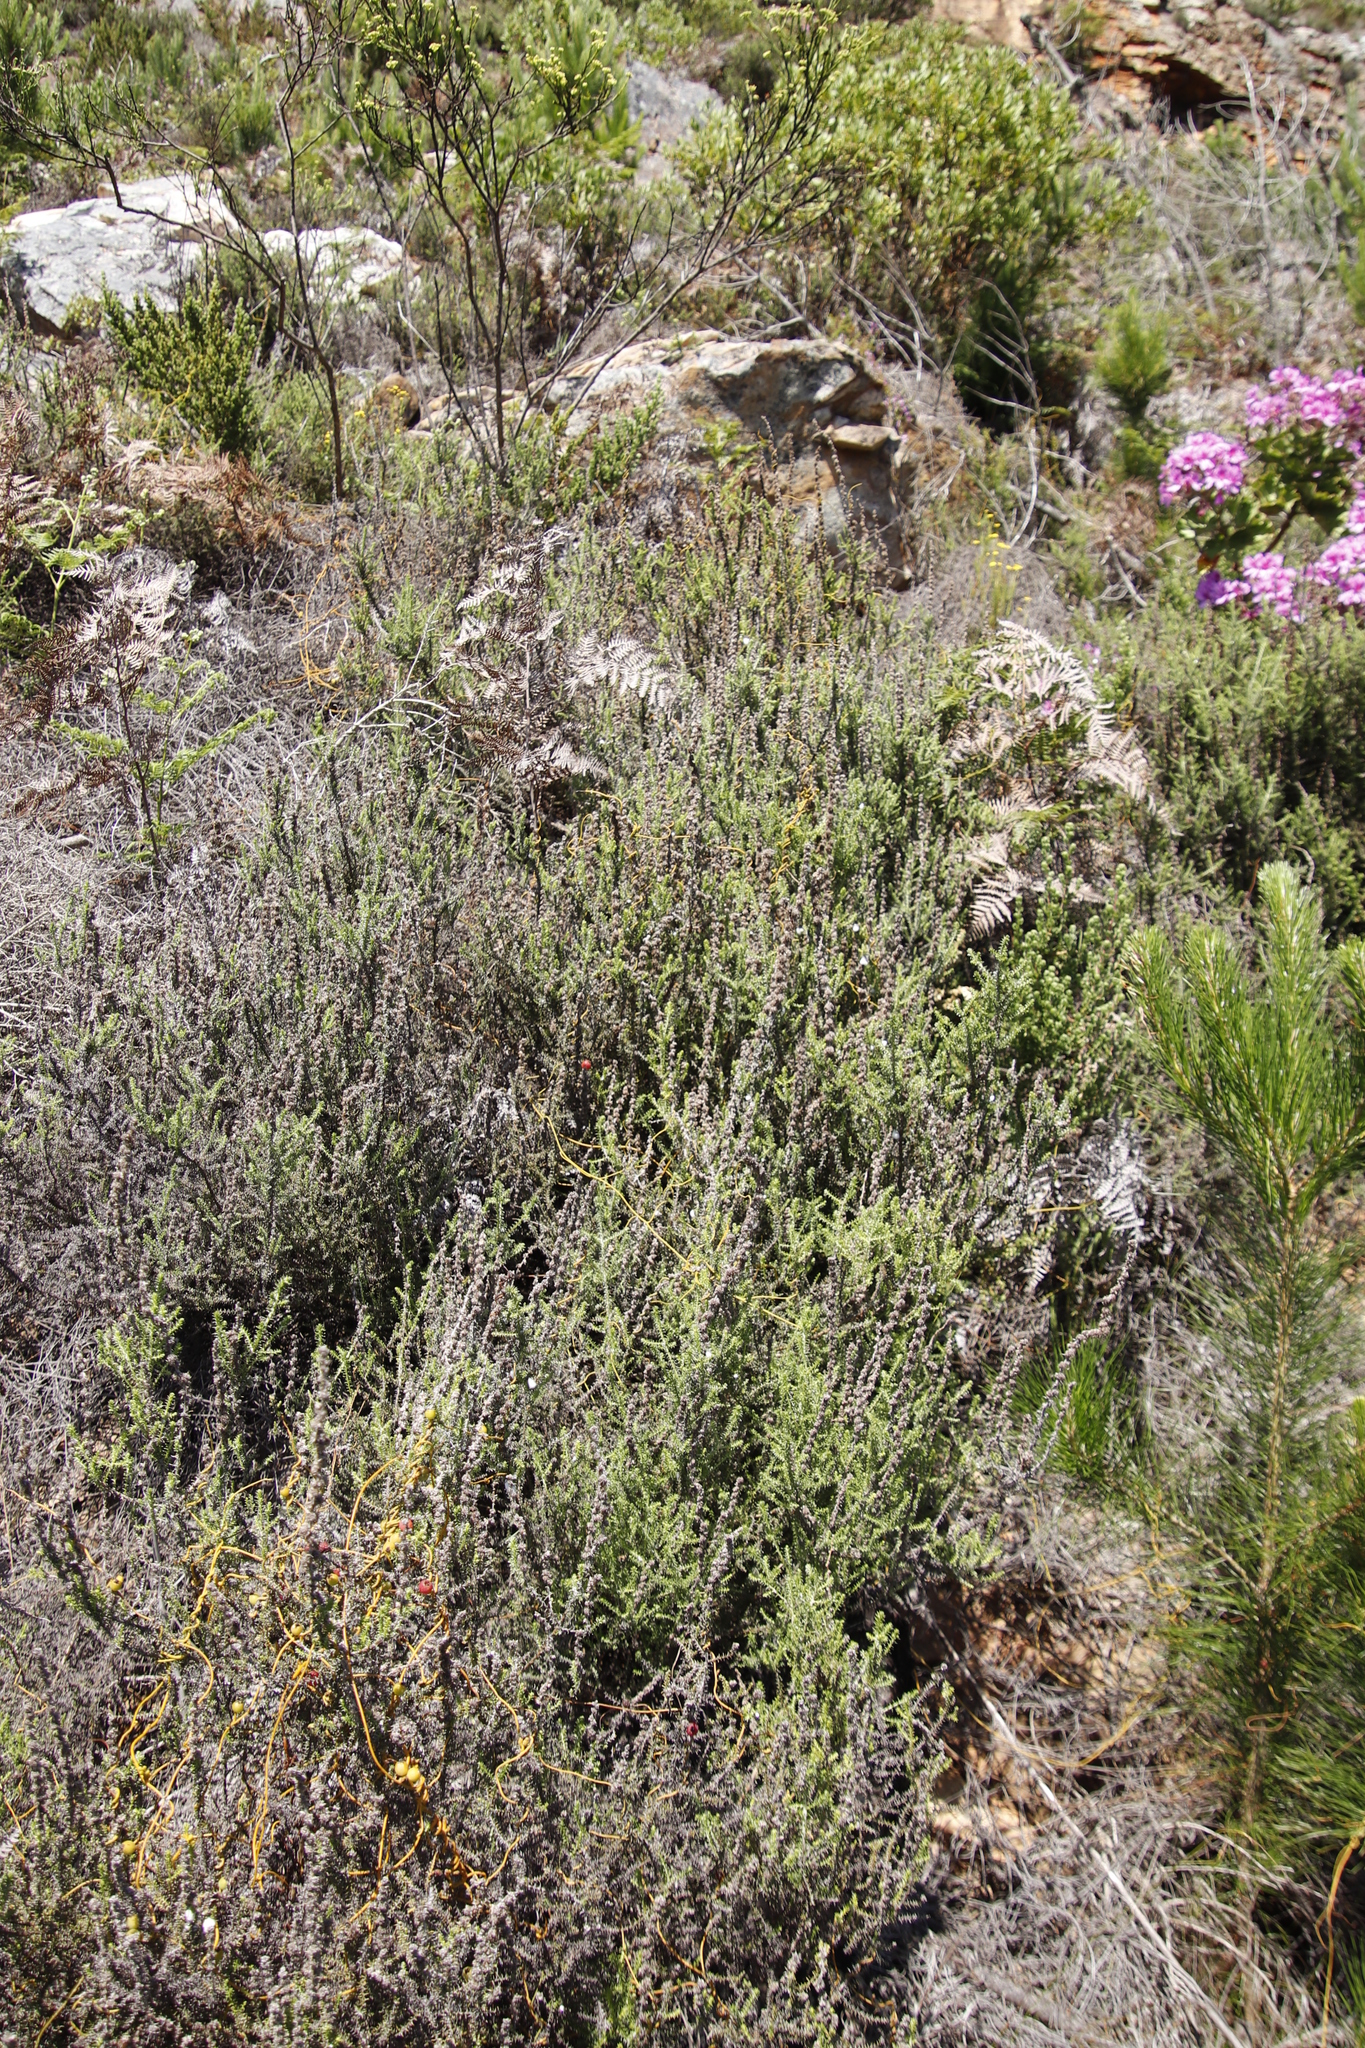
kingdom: Plantae
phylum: Tracheophyta
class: Magnoliopsida
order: Asterales
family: Asteraceae
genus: Seriphium
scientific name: Seriphium cinereum
